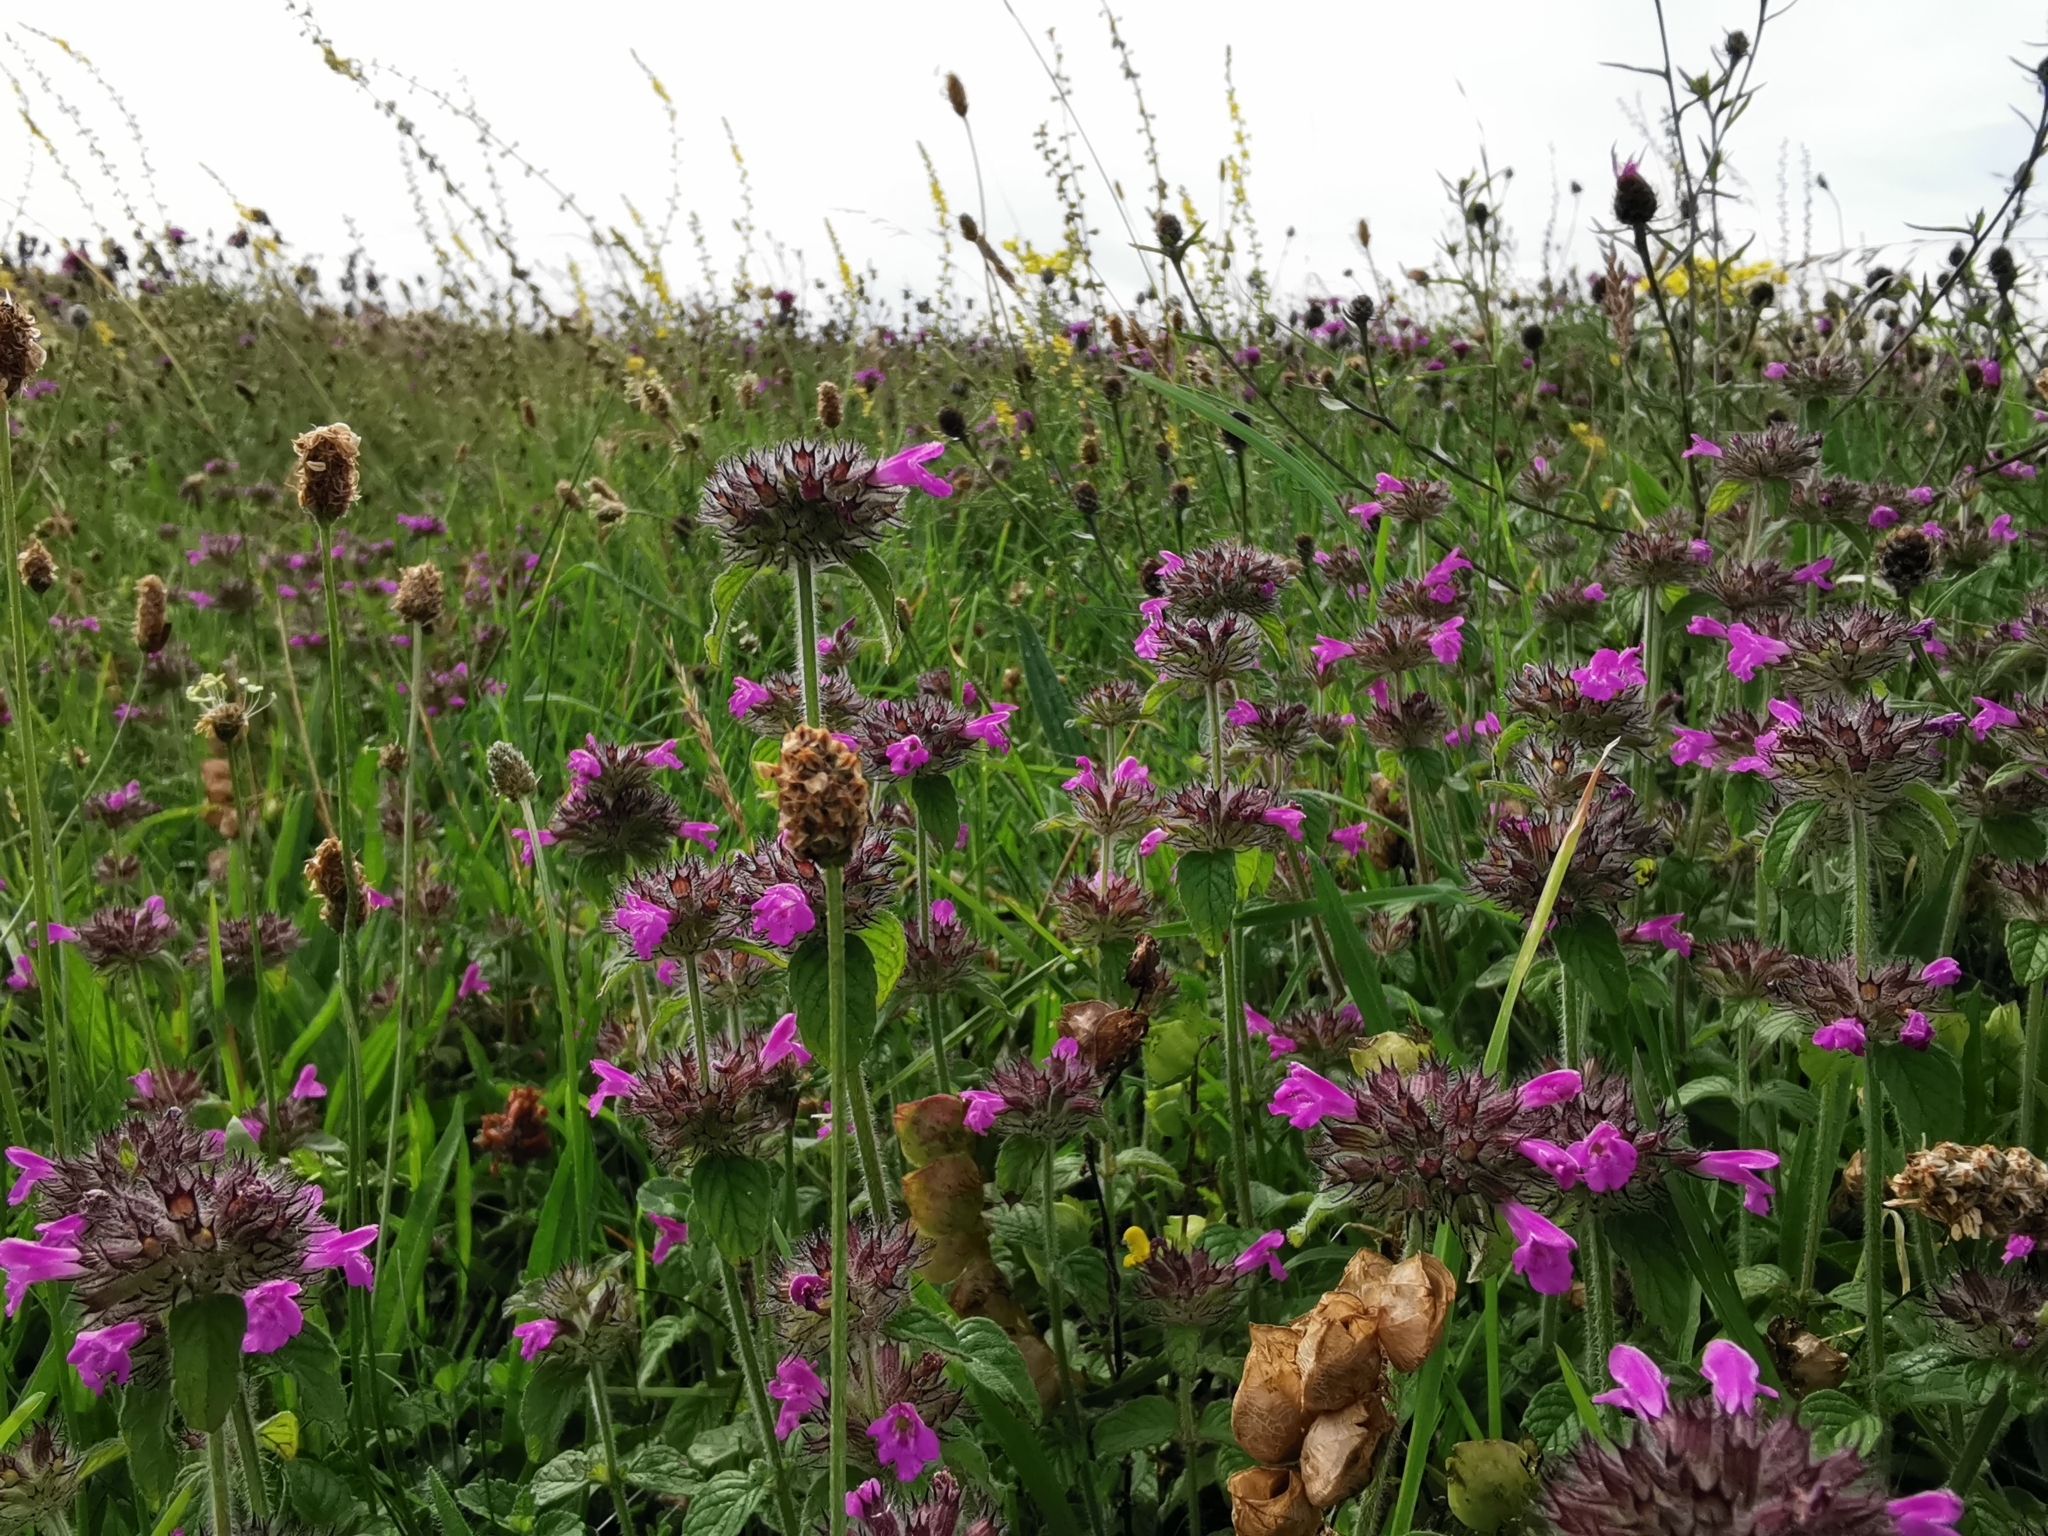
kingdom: Plantae
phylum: Tracheophyta
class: Magnoliopsida
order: Lamiales
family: Lamiaceae
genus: Clinopodium
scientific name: Clinopodium vulgare
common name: Wild basil
